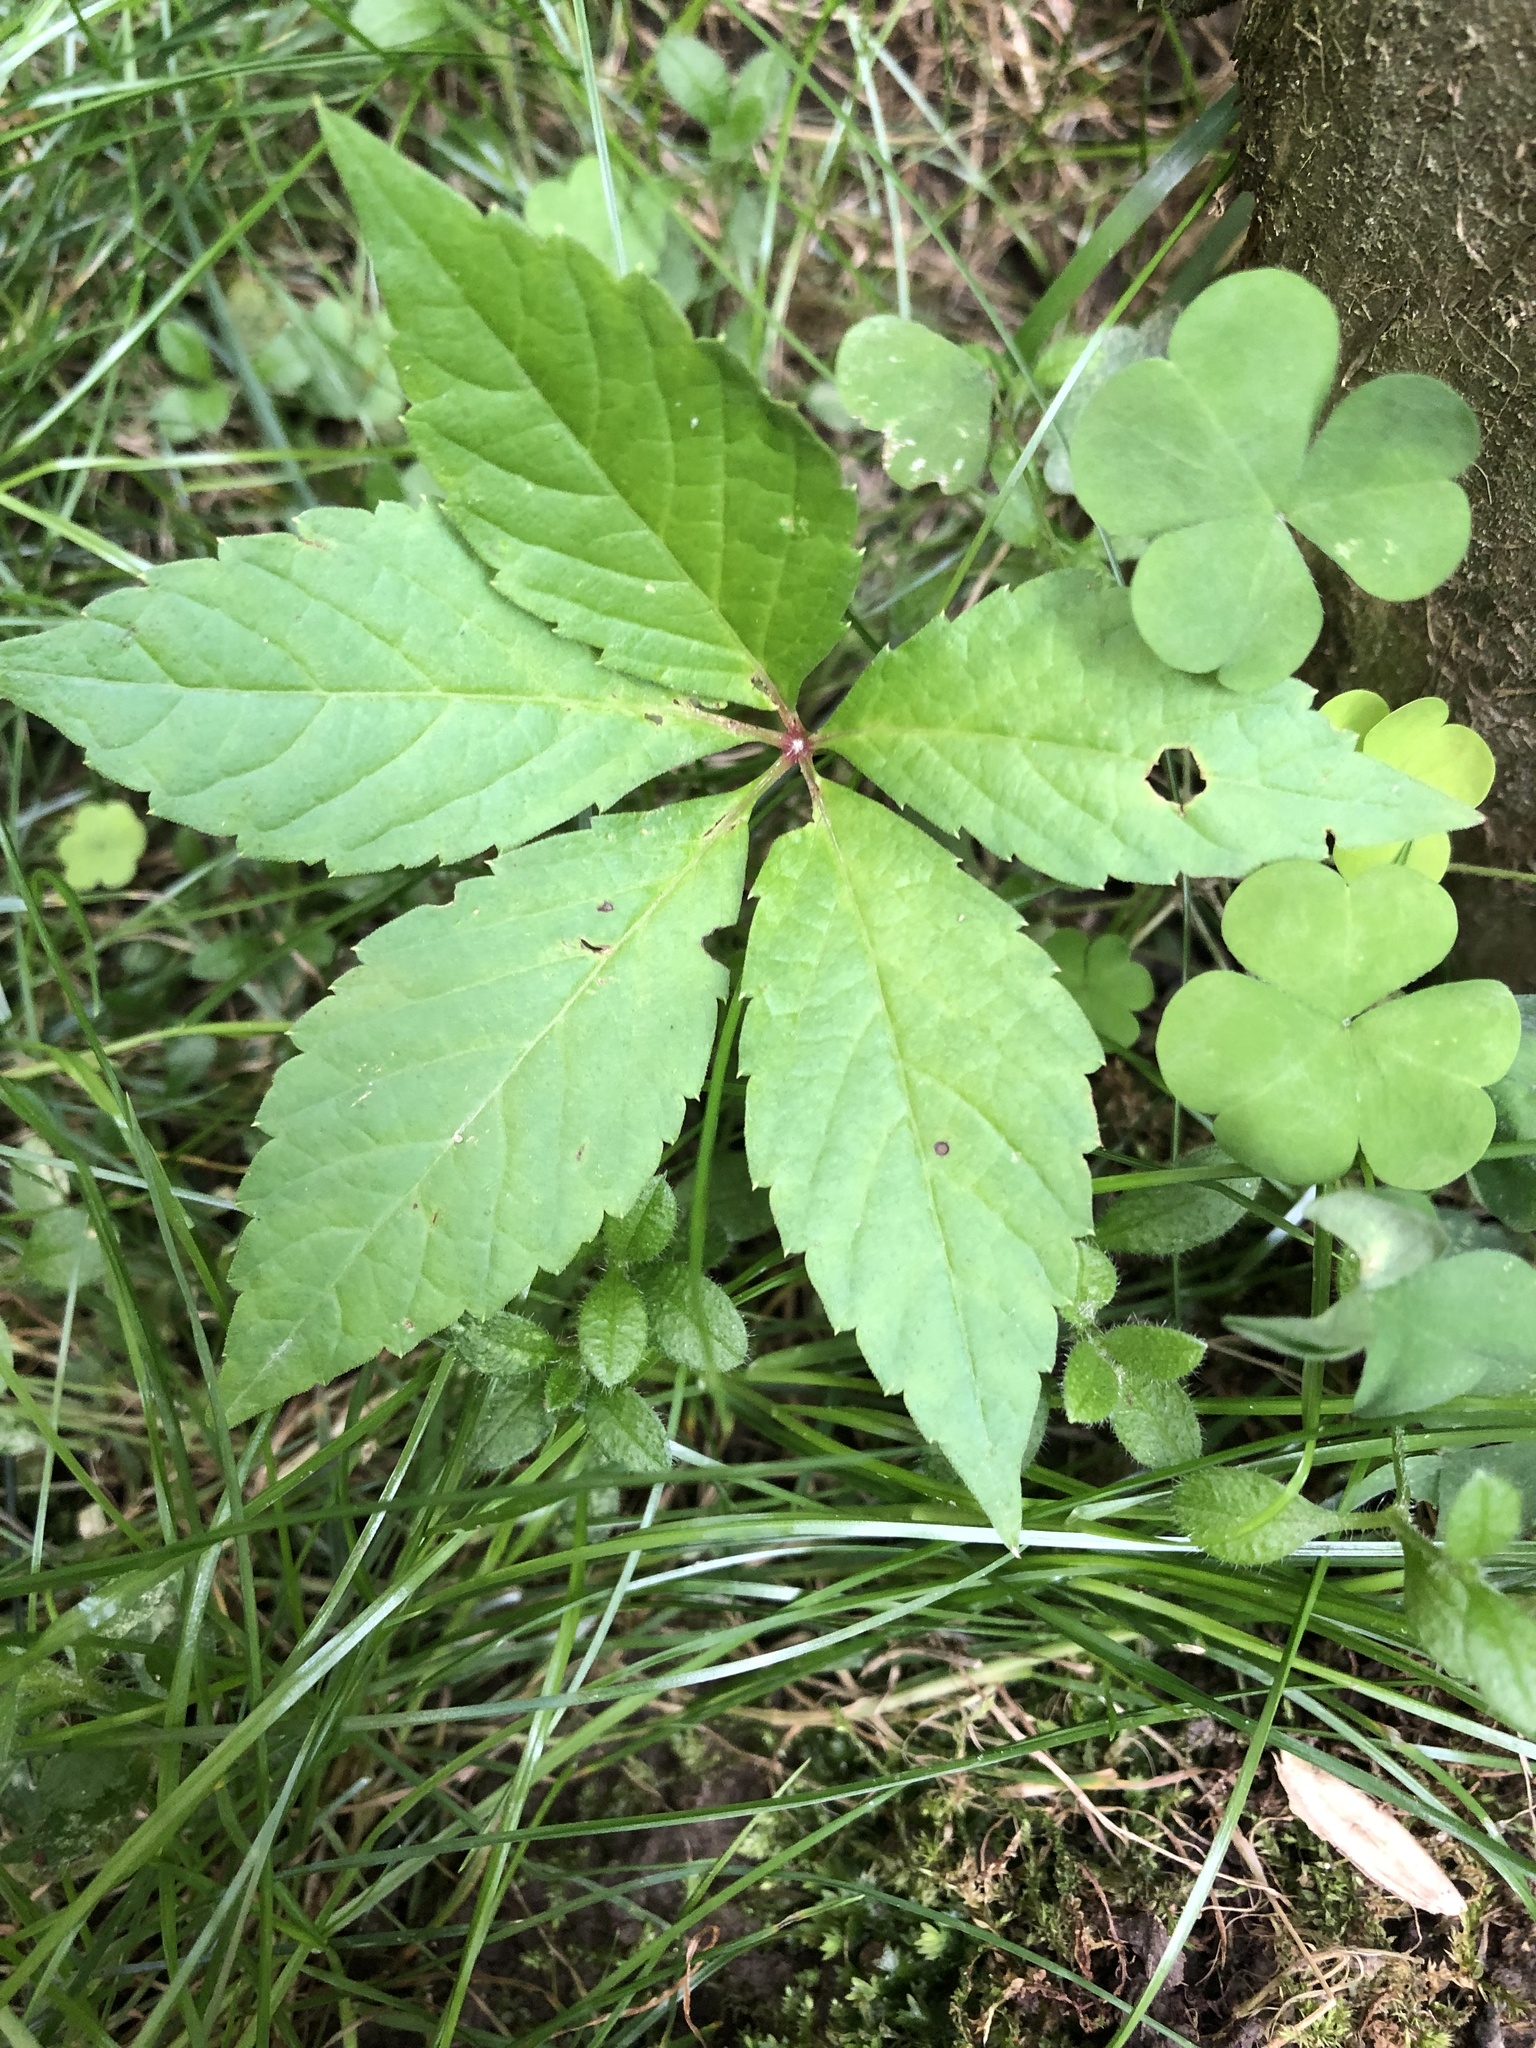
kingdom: Plantae
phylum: Tracheophyta
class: Magnoliopsida
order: Vitales
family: Vitaceae
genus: Parthenocissus
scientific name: Parthenocissus quinquefolia
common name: Virginia-creeper
